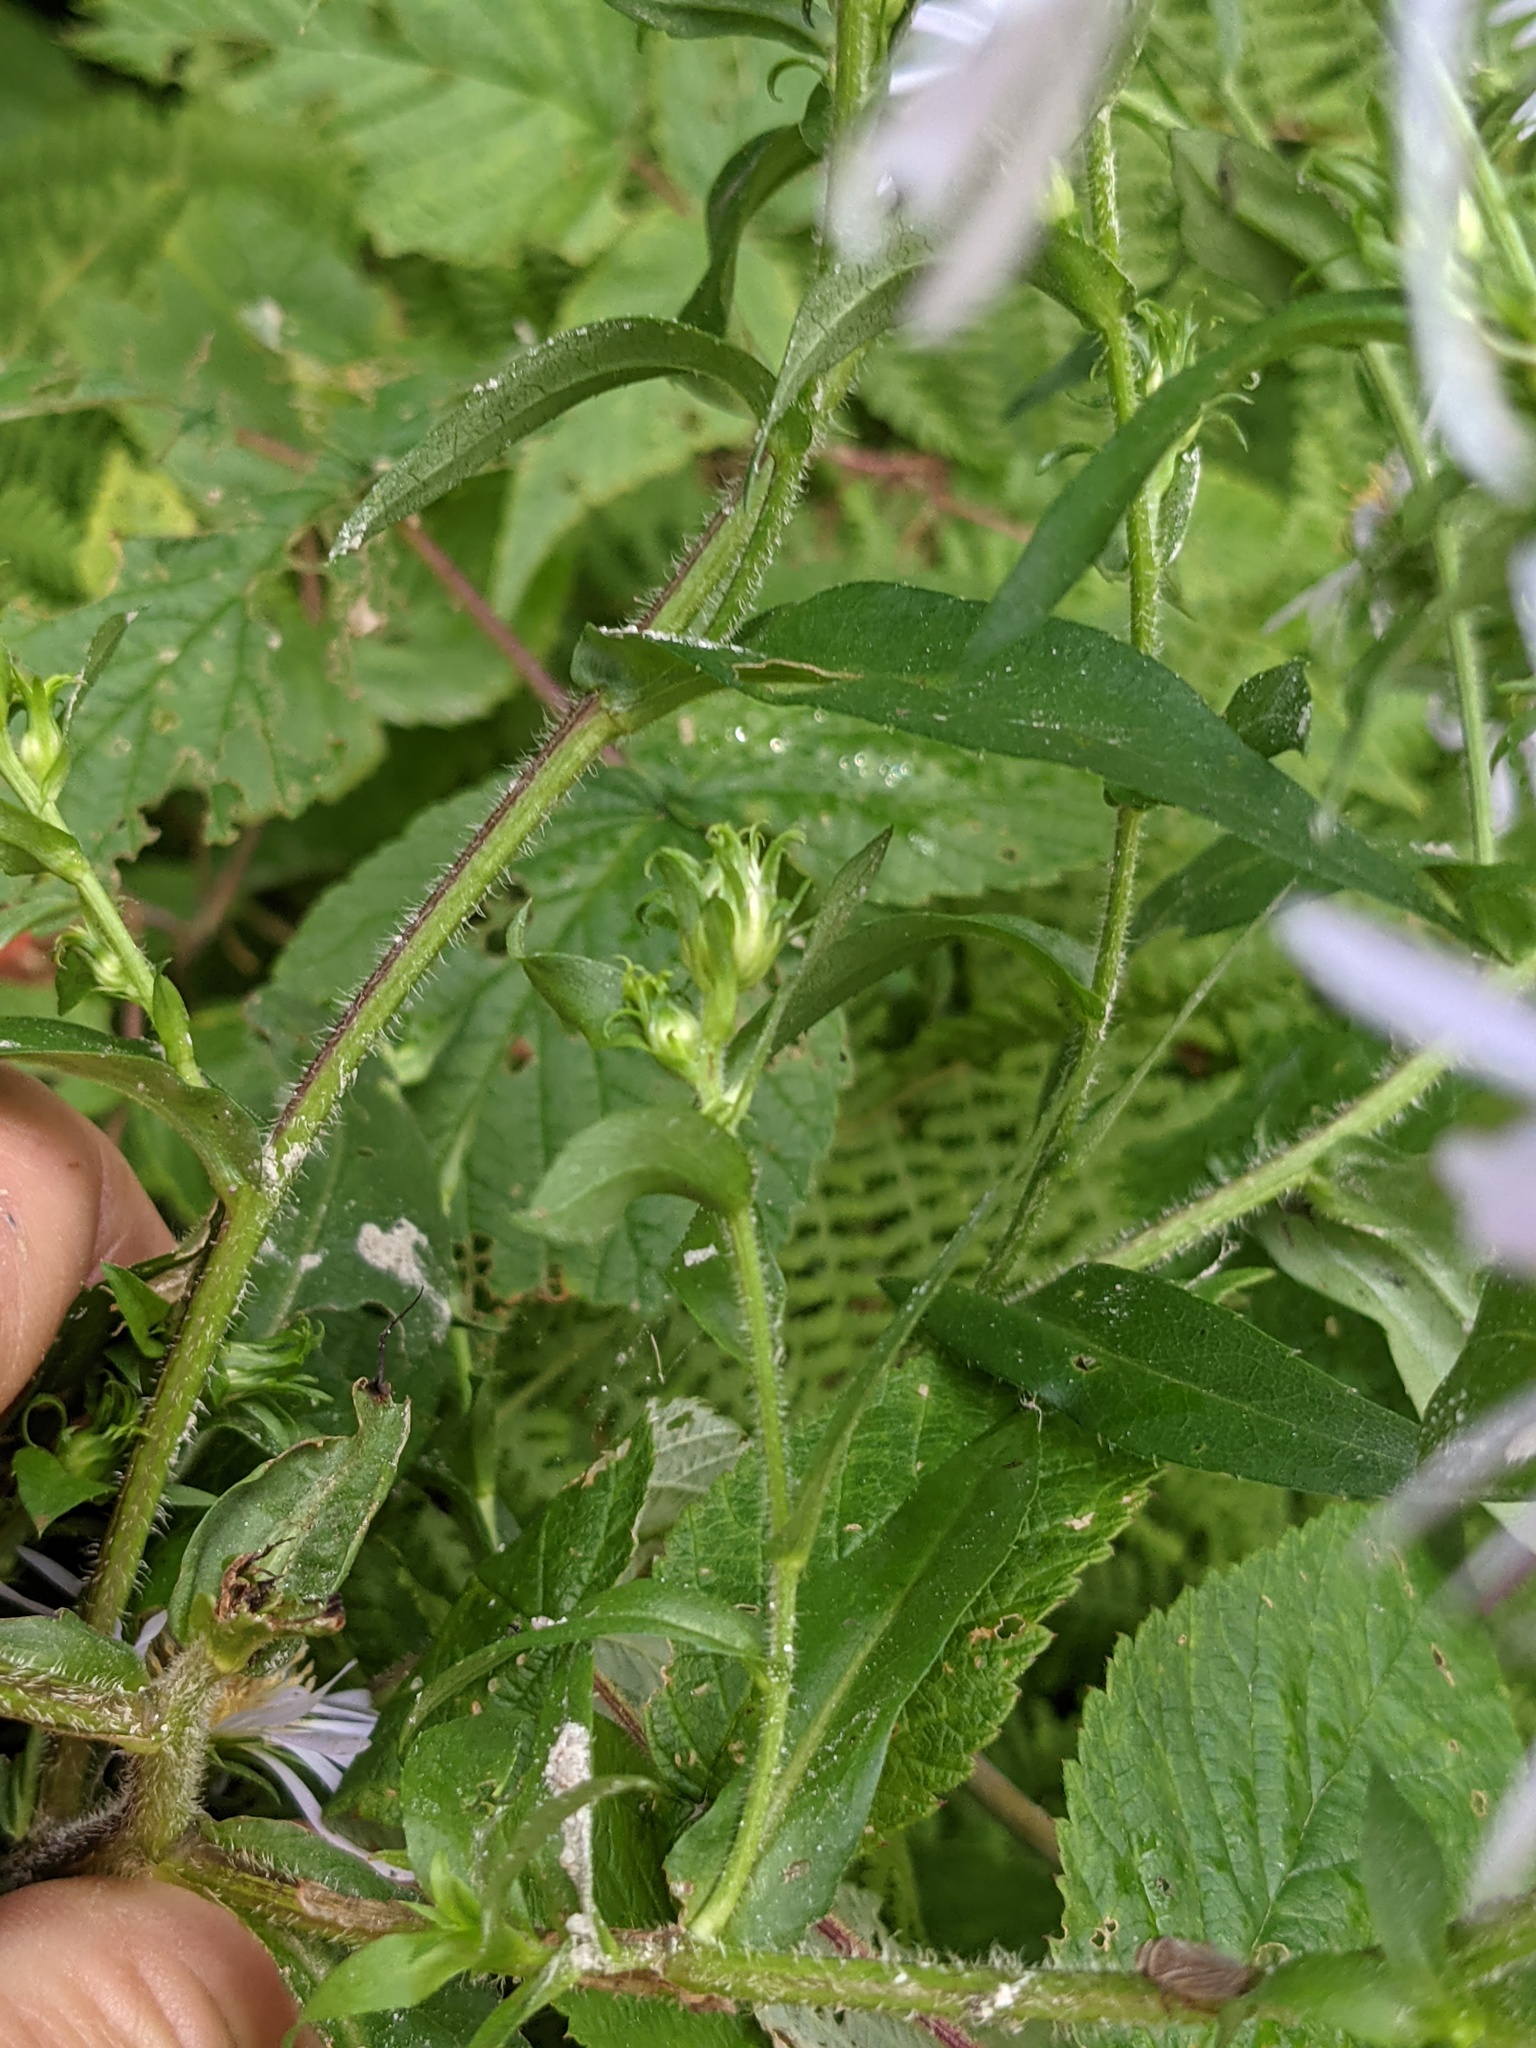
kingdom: Plantae
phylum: Tracheophyta
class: Magnoliopsida
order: Asterales
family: Asteraceae
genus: Symphyotrichum
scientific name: Symphyotrichum puniceum
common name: Bog aster
